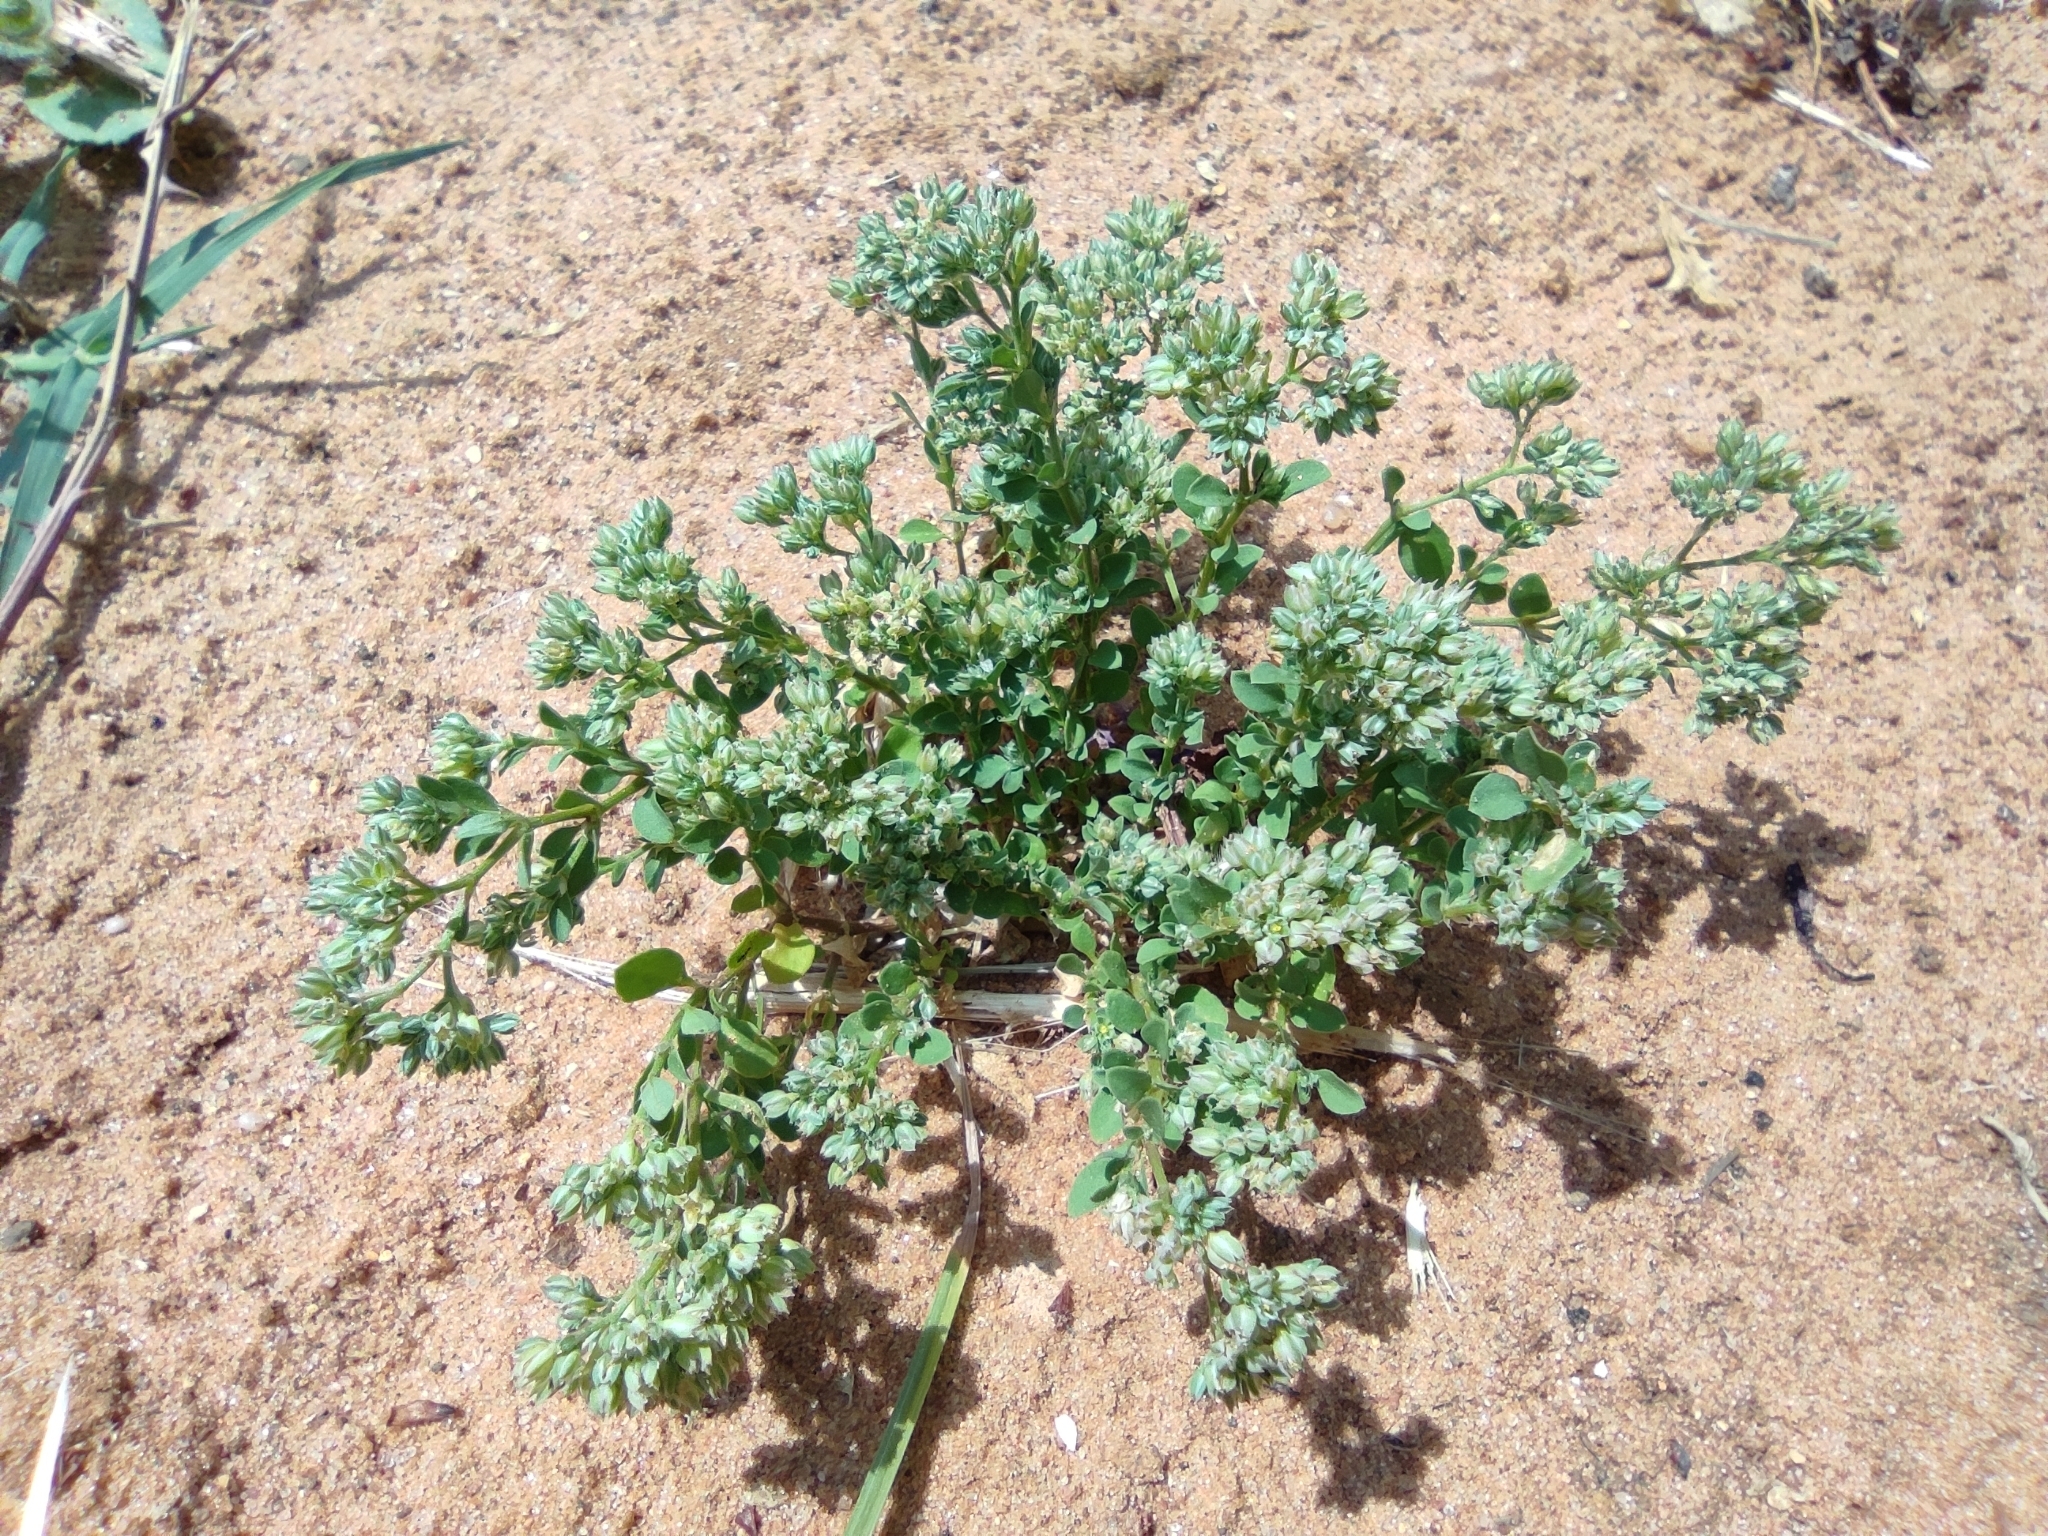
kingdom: Plantae
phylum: Tracheophyta
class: Magnoliopsida
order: Caryophyllales
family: Caryophyllaceae
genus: Polycarpon
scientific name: Polycarpon tetraphyllum
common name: Four-leaved all-seed
